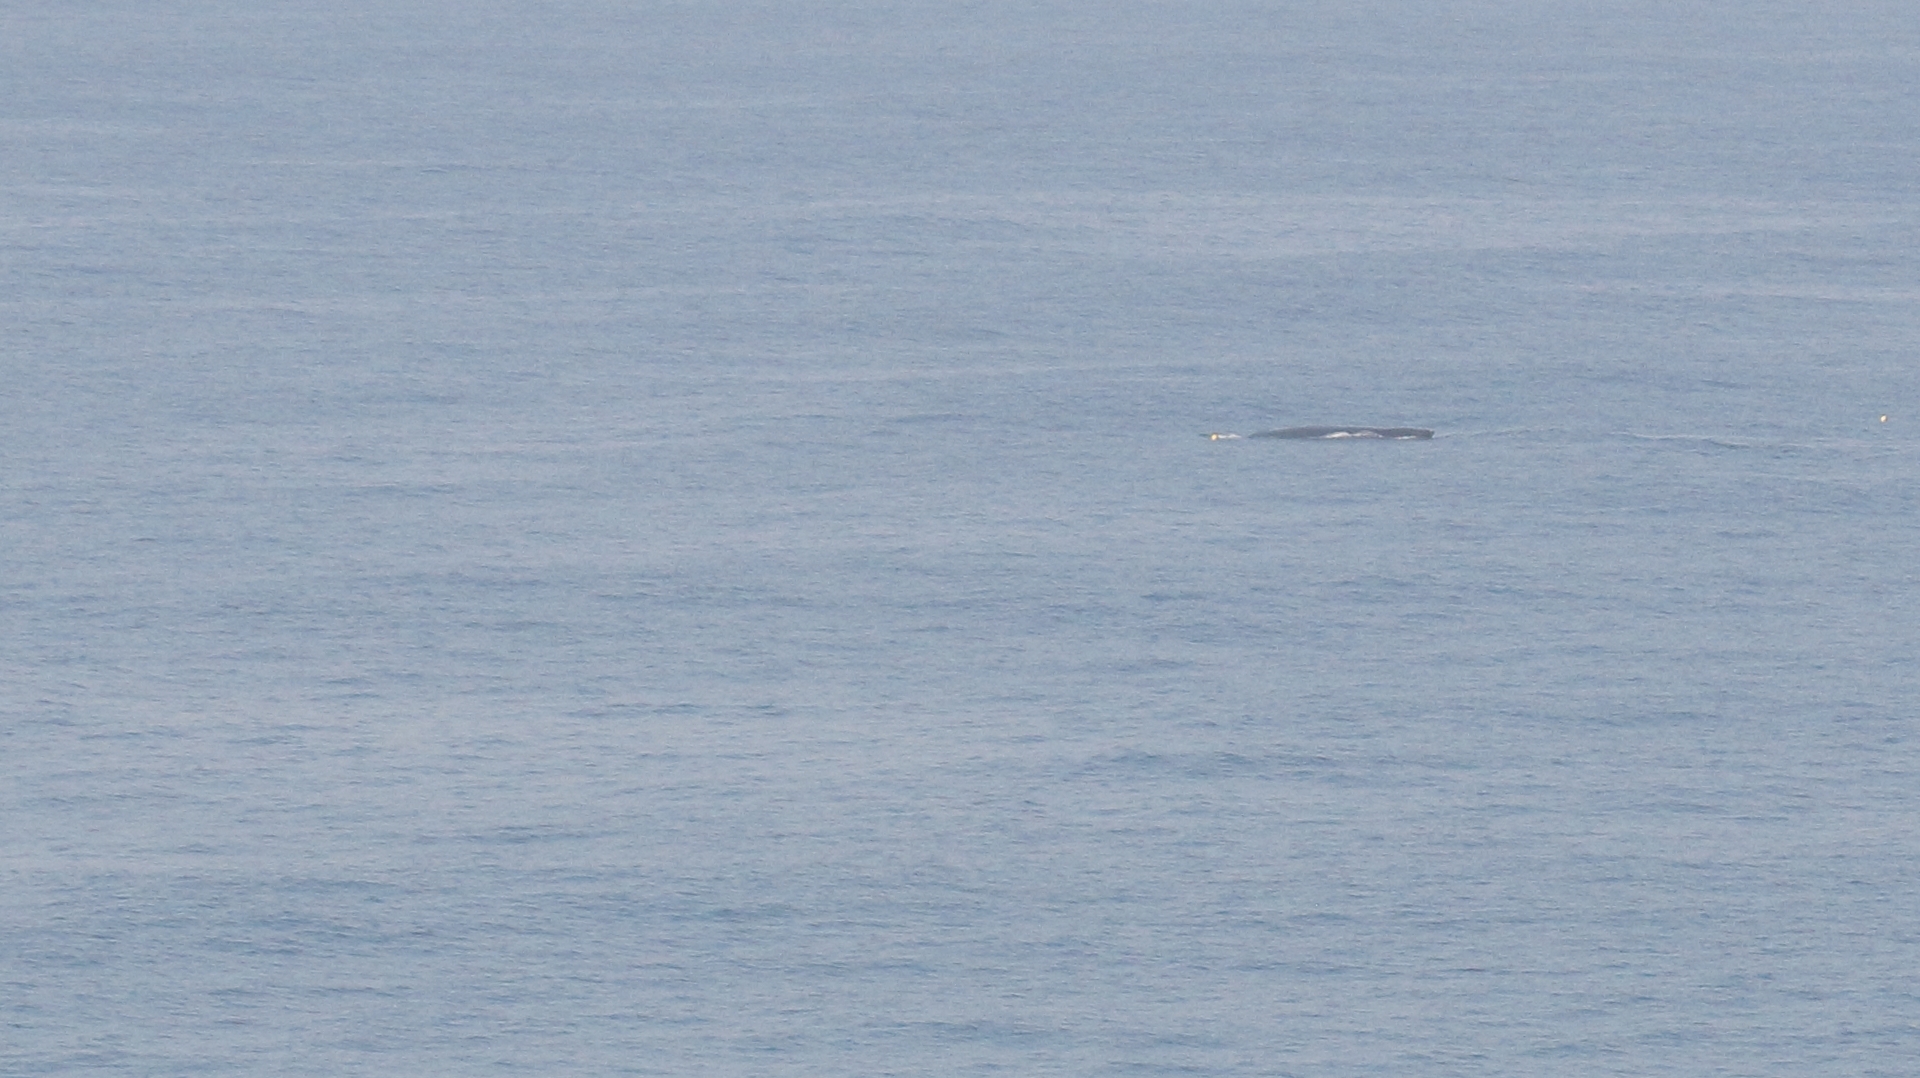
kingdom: Animalia
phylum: Chordata
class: Mammalia
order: Cetacea
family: Balaenopteridae
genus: Megaptera
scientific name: Megaptera novaeangliae
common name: Humpback whale
